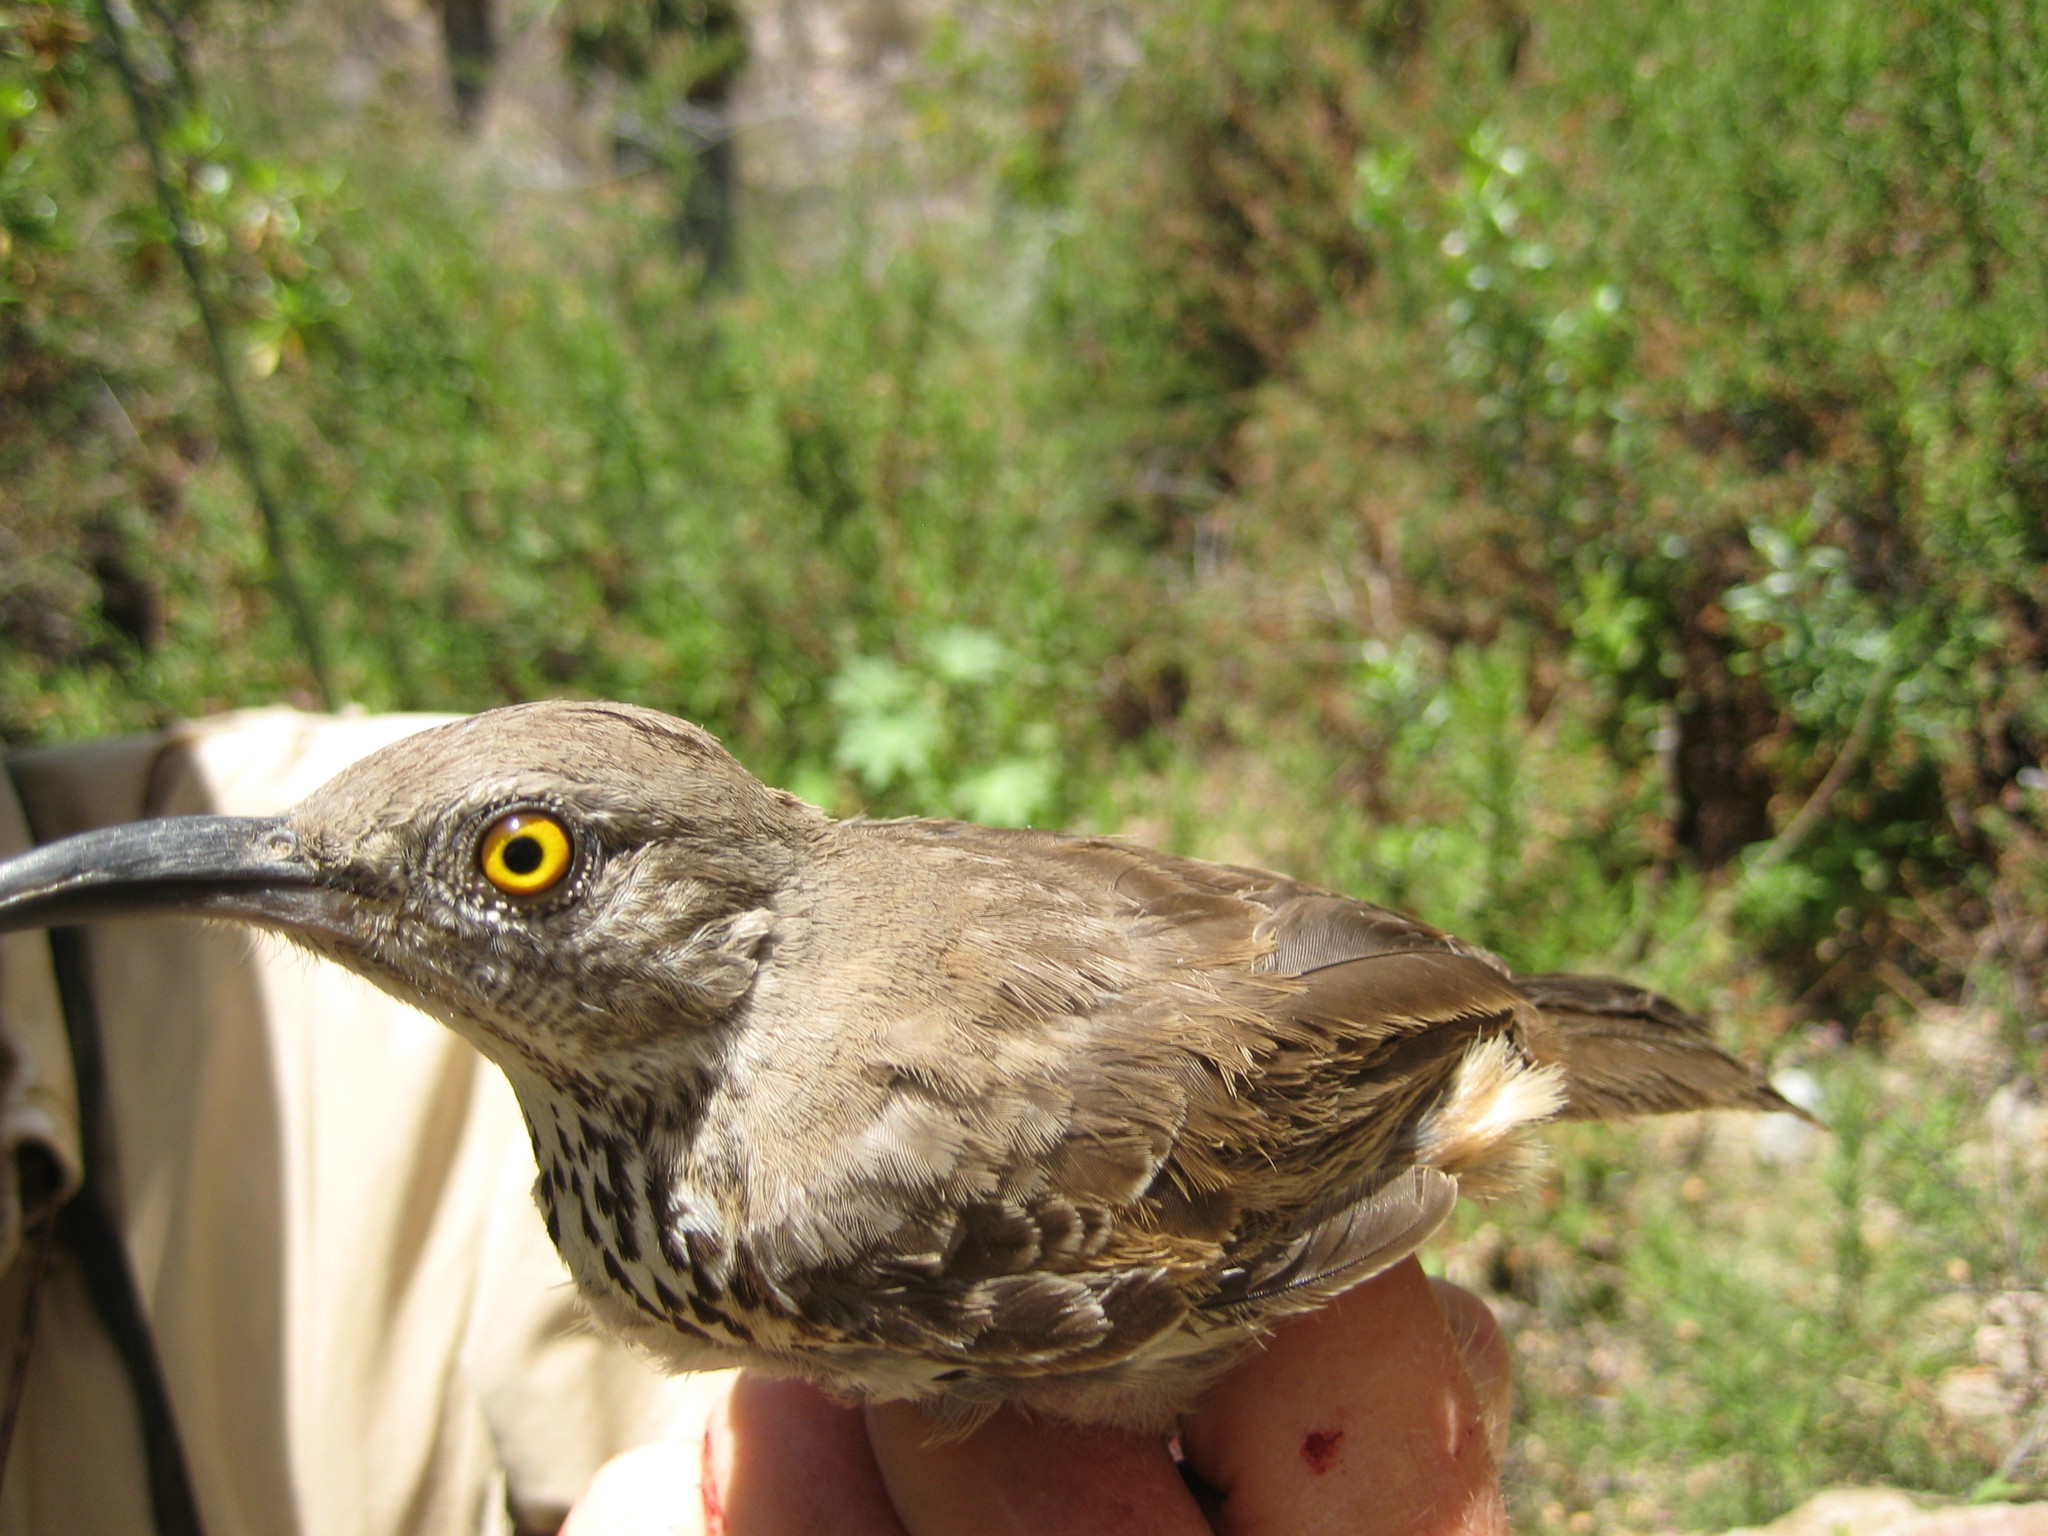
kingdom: Animalia
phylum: Chordata
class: Aves
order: Passeriformes
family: Mimidae
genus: Toxostoma
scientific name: Toxostoma cinereum
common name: Gray thrasher
